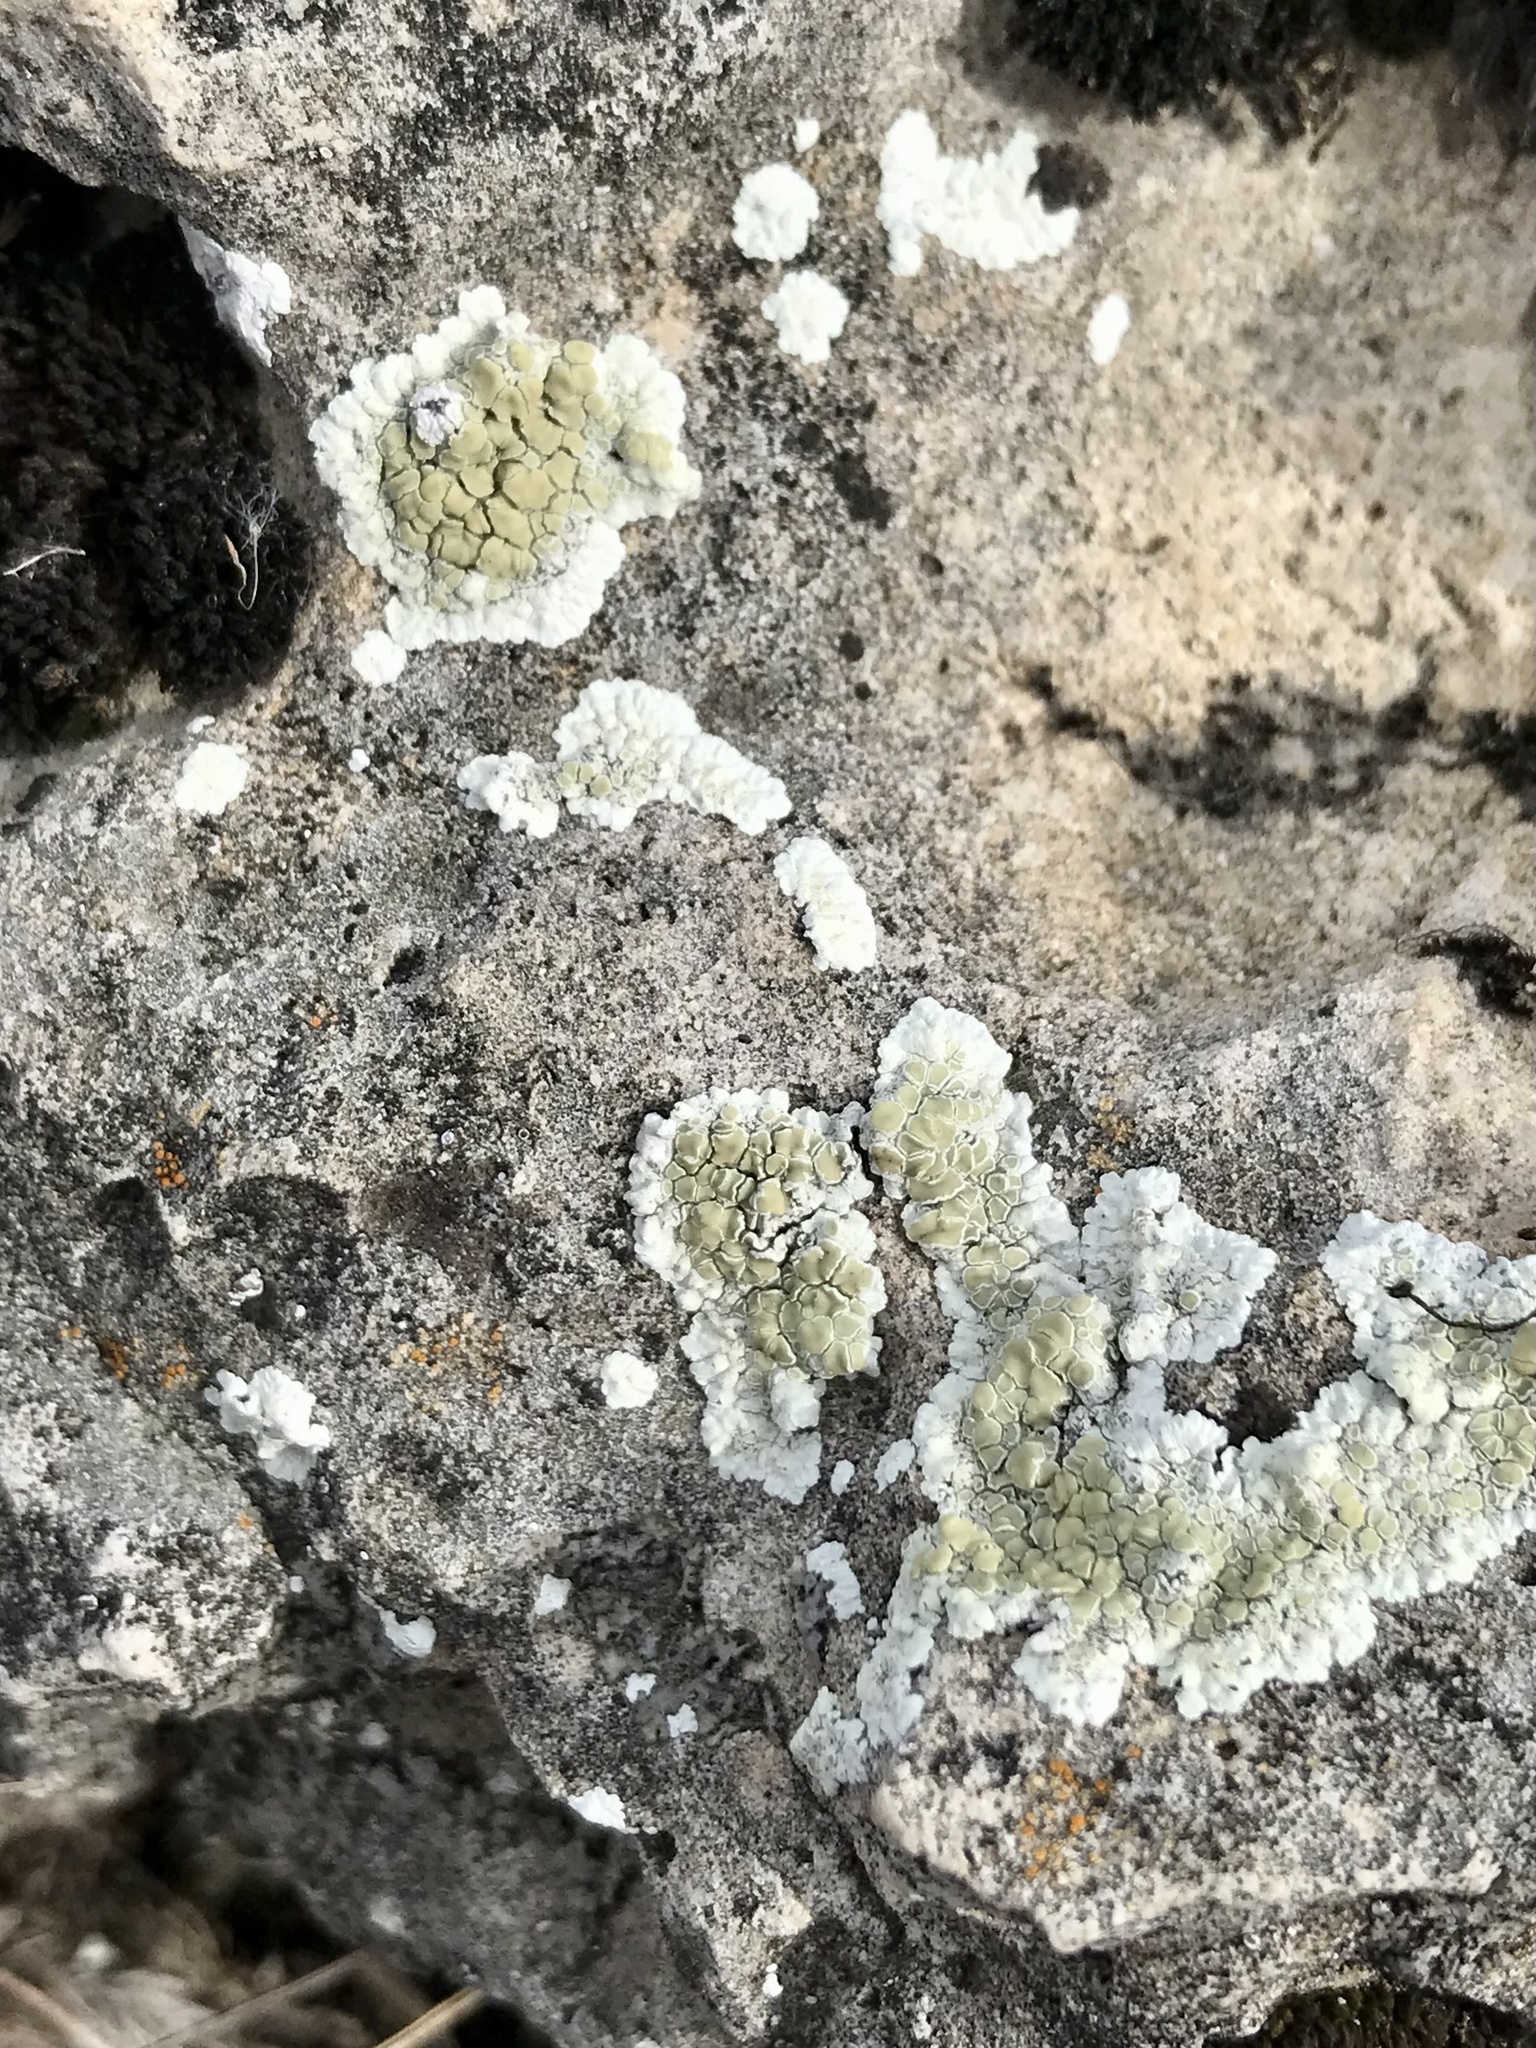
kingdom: Fungi
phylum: Ascomycota
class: Lecanoromycetes
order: Lecanorales
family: Lecanoraceae
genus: Lecanora
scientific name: Lecanora valesiaca
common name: Valois rim-lichen
